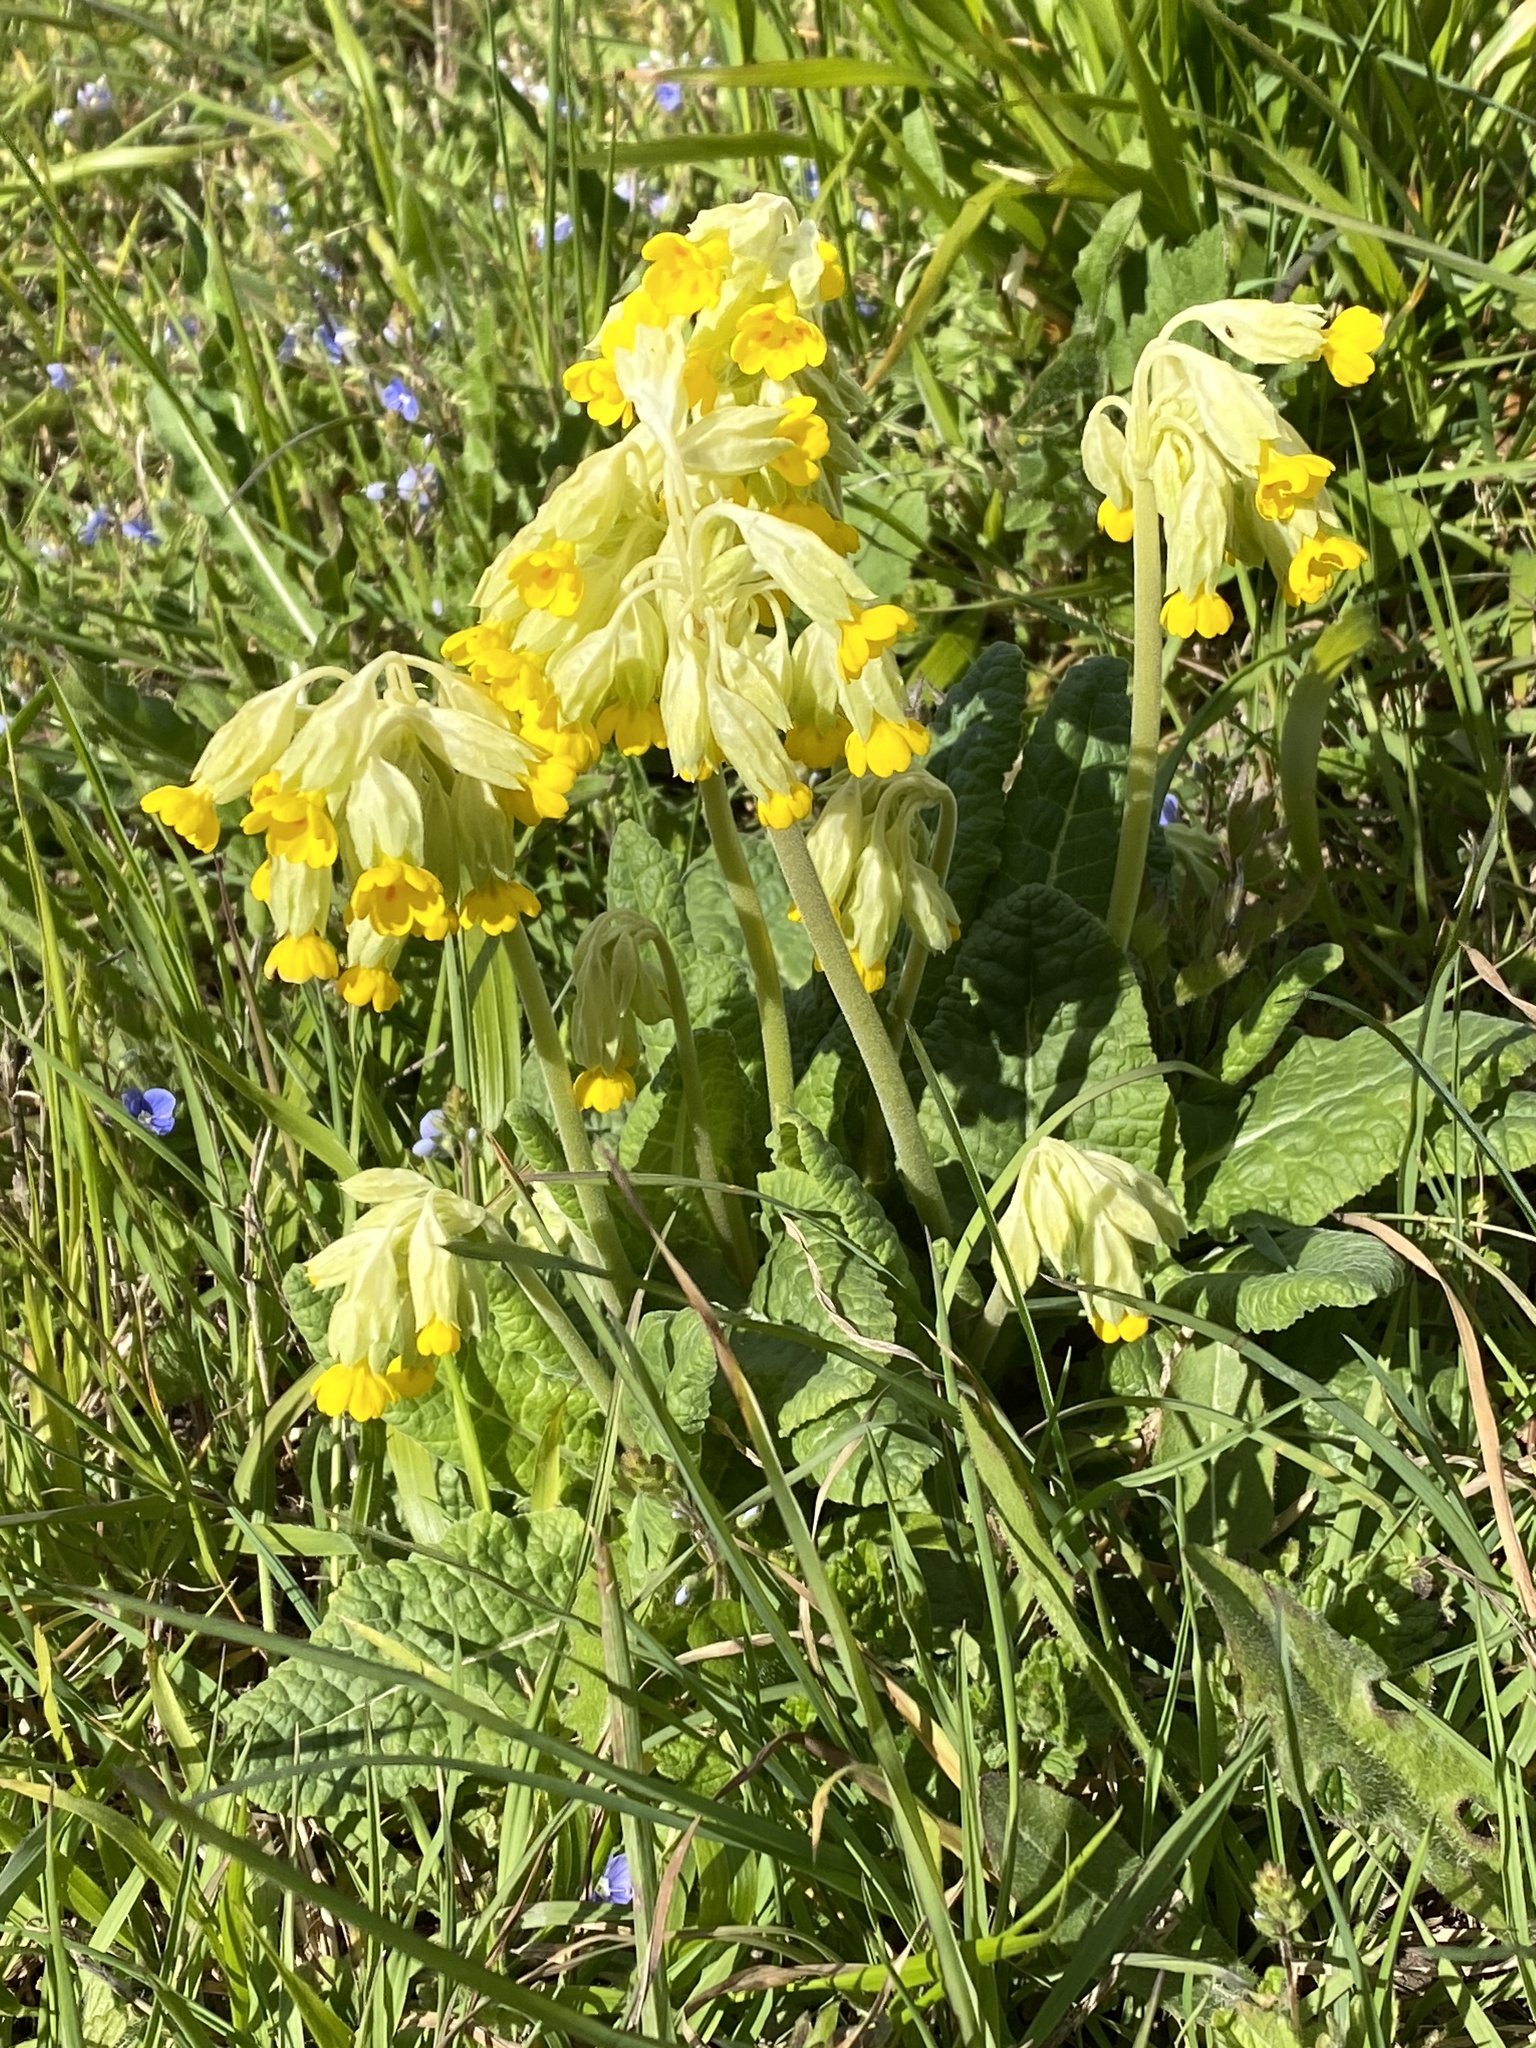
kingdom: Plantae
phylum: Tracheophyta
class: Magnoliopsida
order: Ericales
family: Primulaceae
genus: Primula
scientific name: Primula veris
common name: Cowslip
